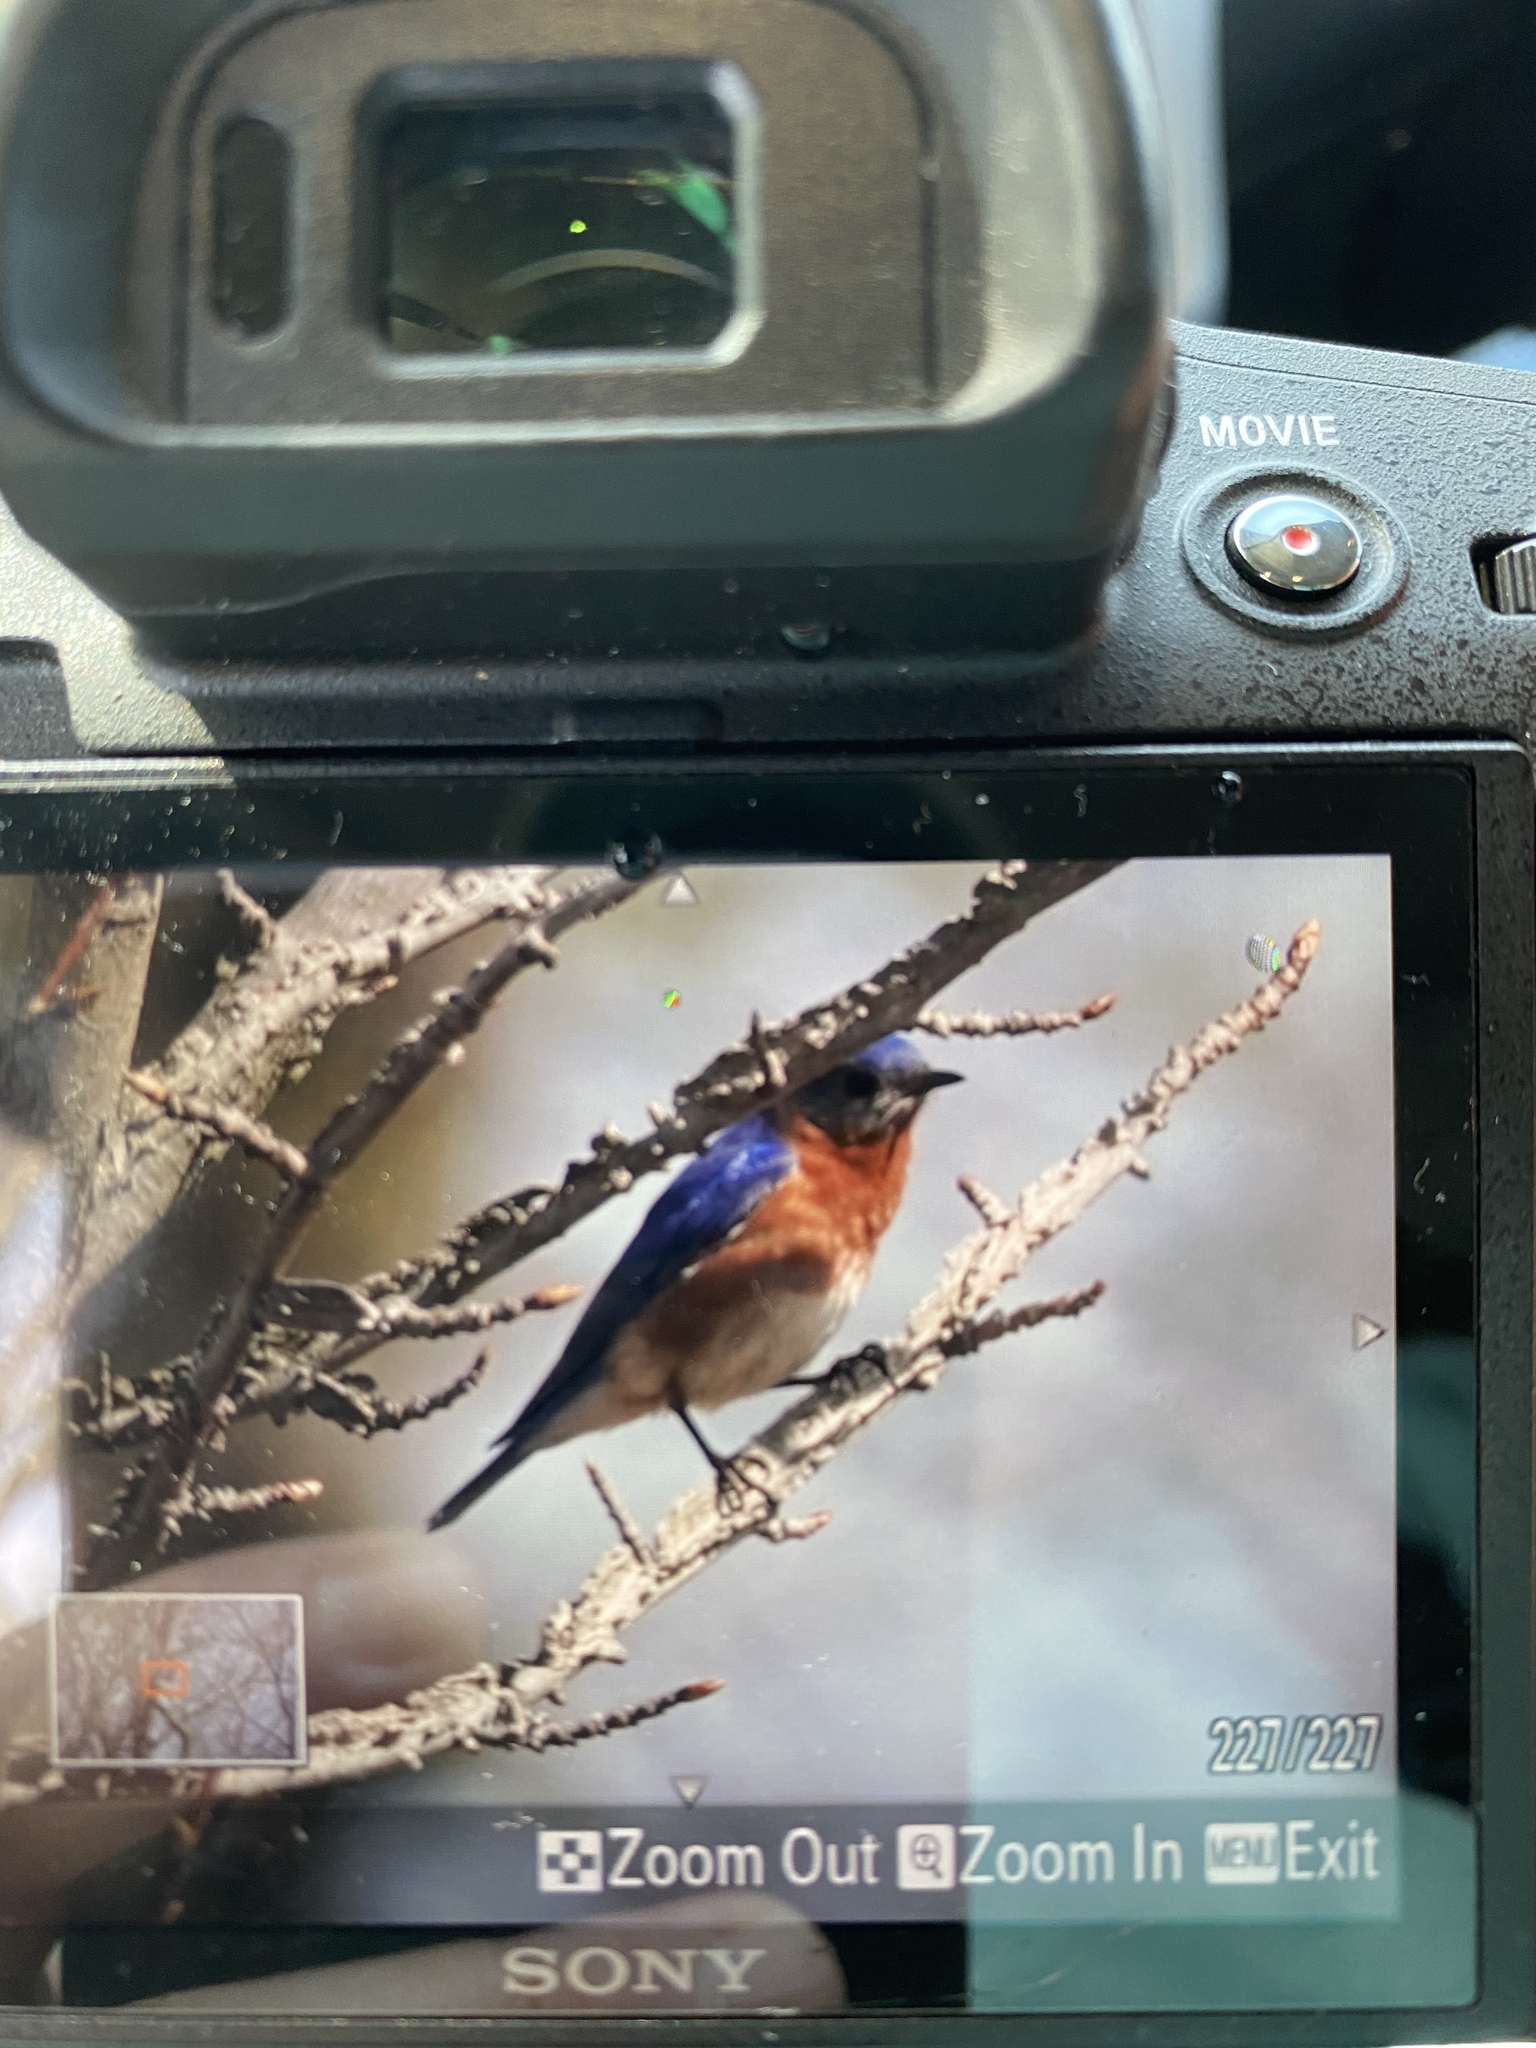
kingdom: Animalia
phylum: Chordata
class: Aves
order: Passeriformes
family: Turdidae
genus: Sialia
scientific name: Sialia sialis
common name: Eastern bluebird
